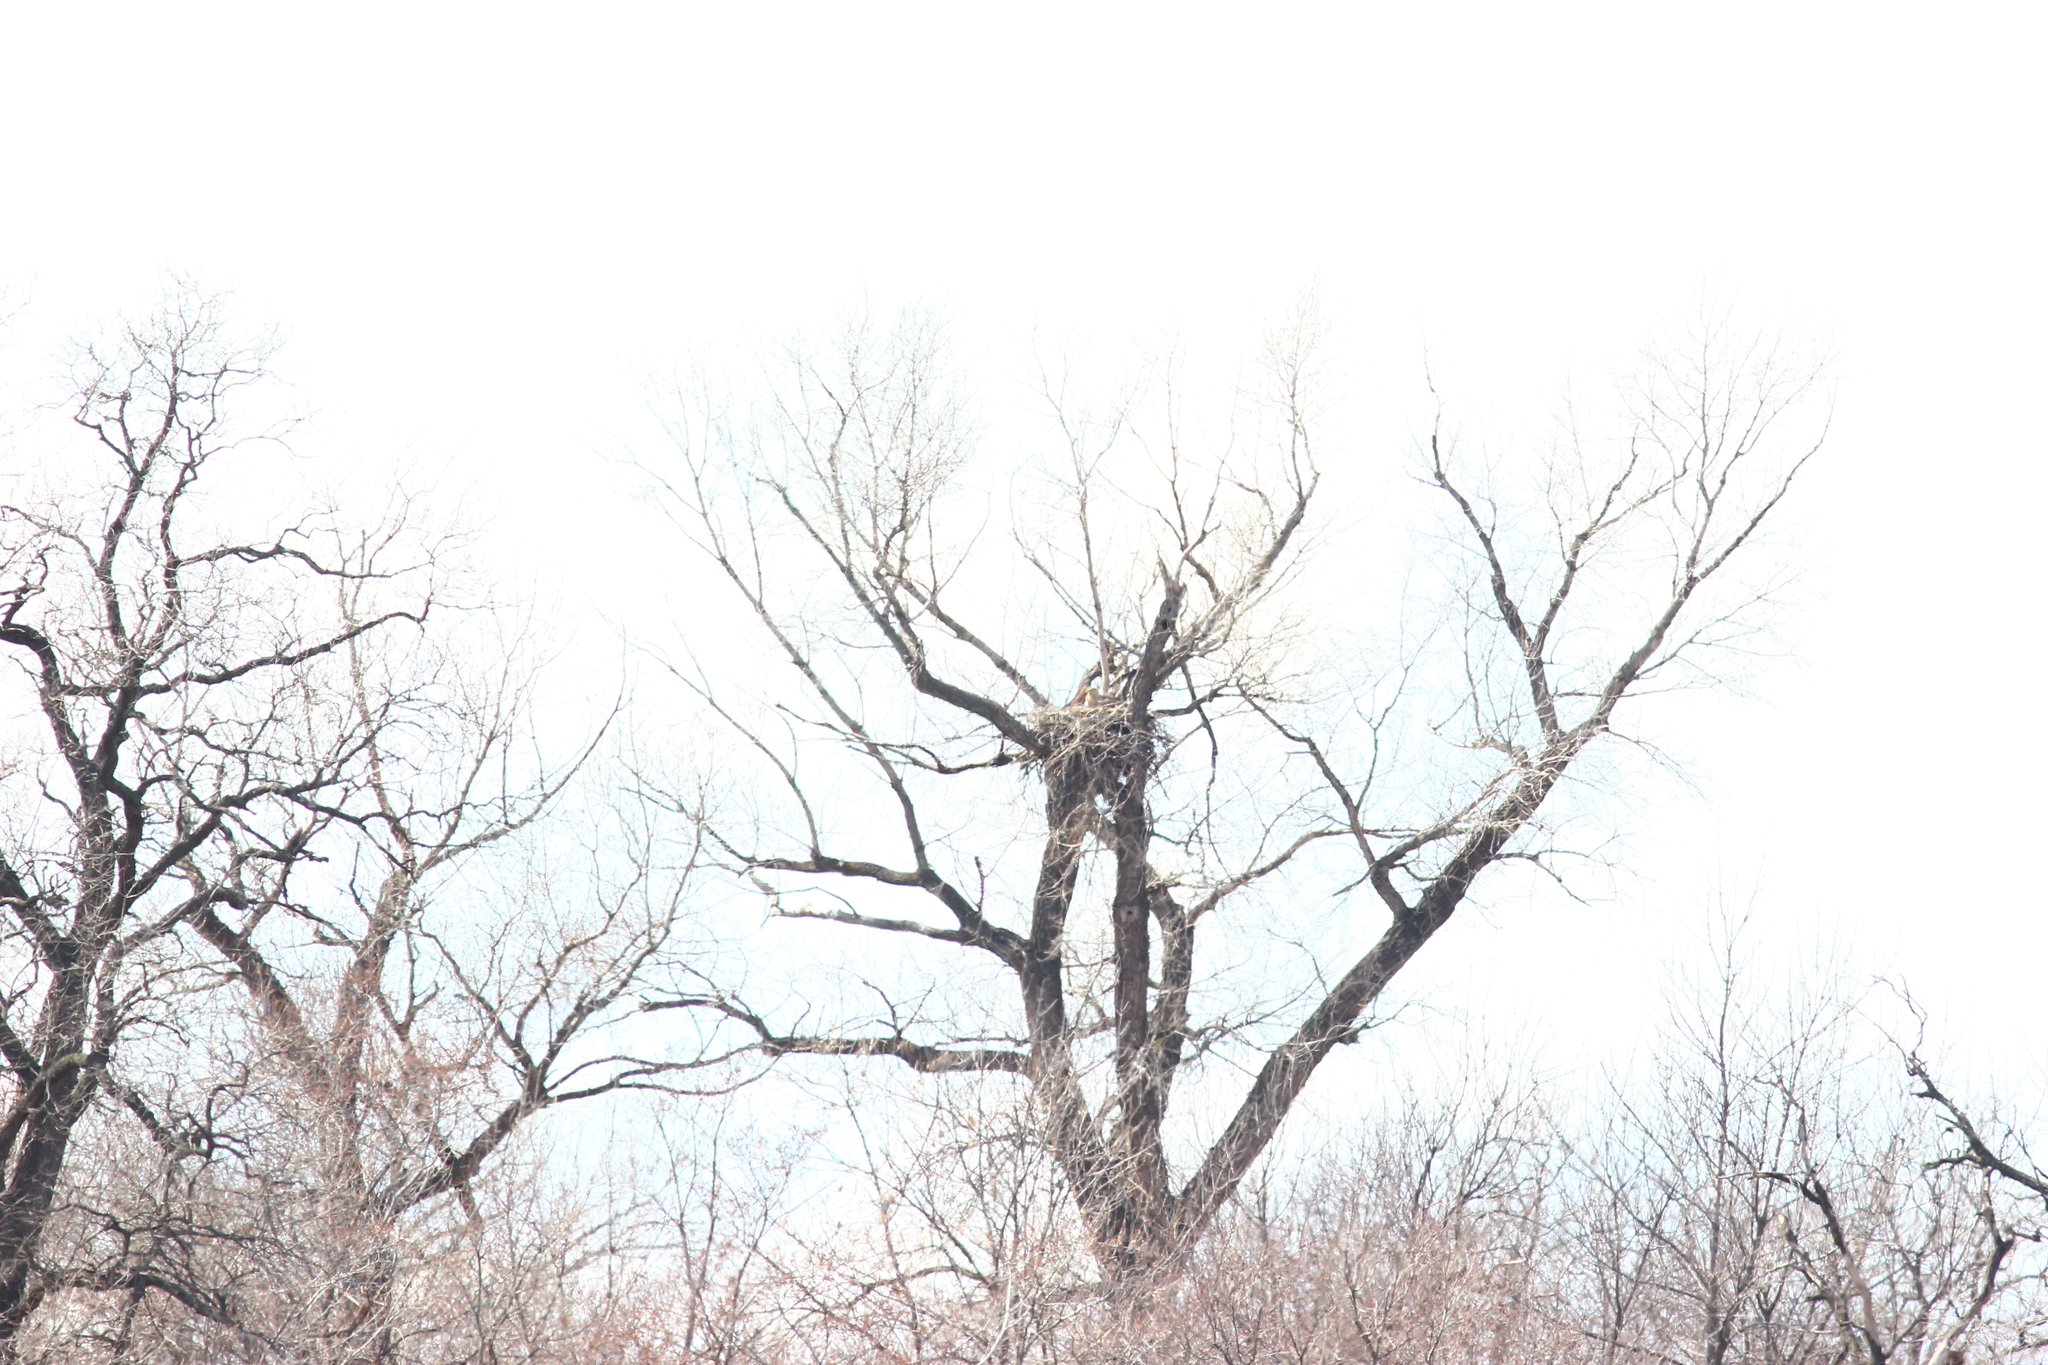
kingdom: Animalia
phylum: Chordata
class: Aves
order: Accipitriformes
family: Accipitridae
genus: Haliaeetus
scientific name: Haliaeetus albicilla
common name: White-tailed eagle
